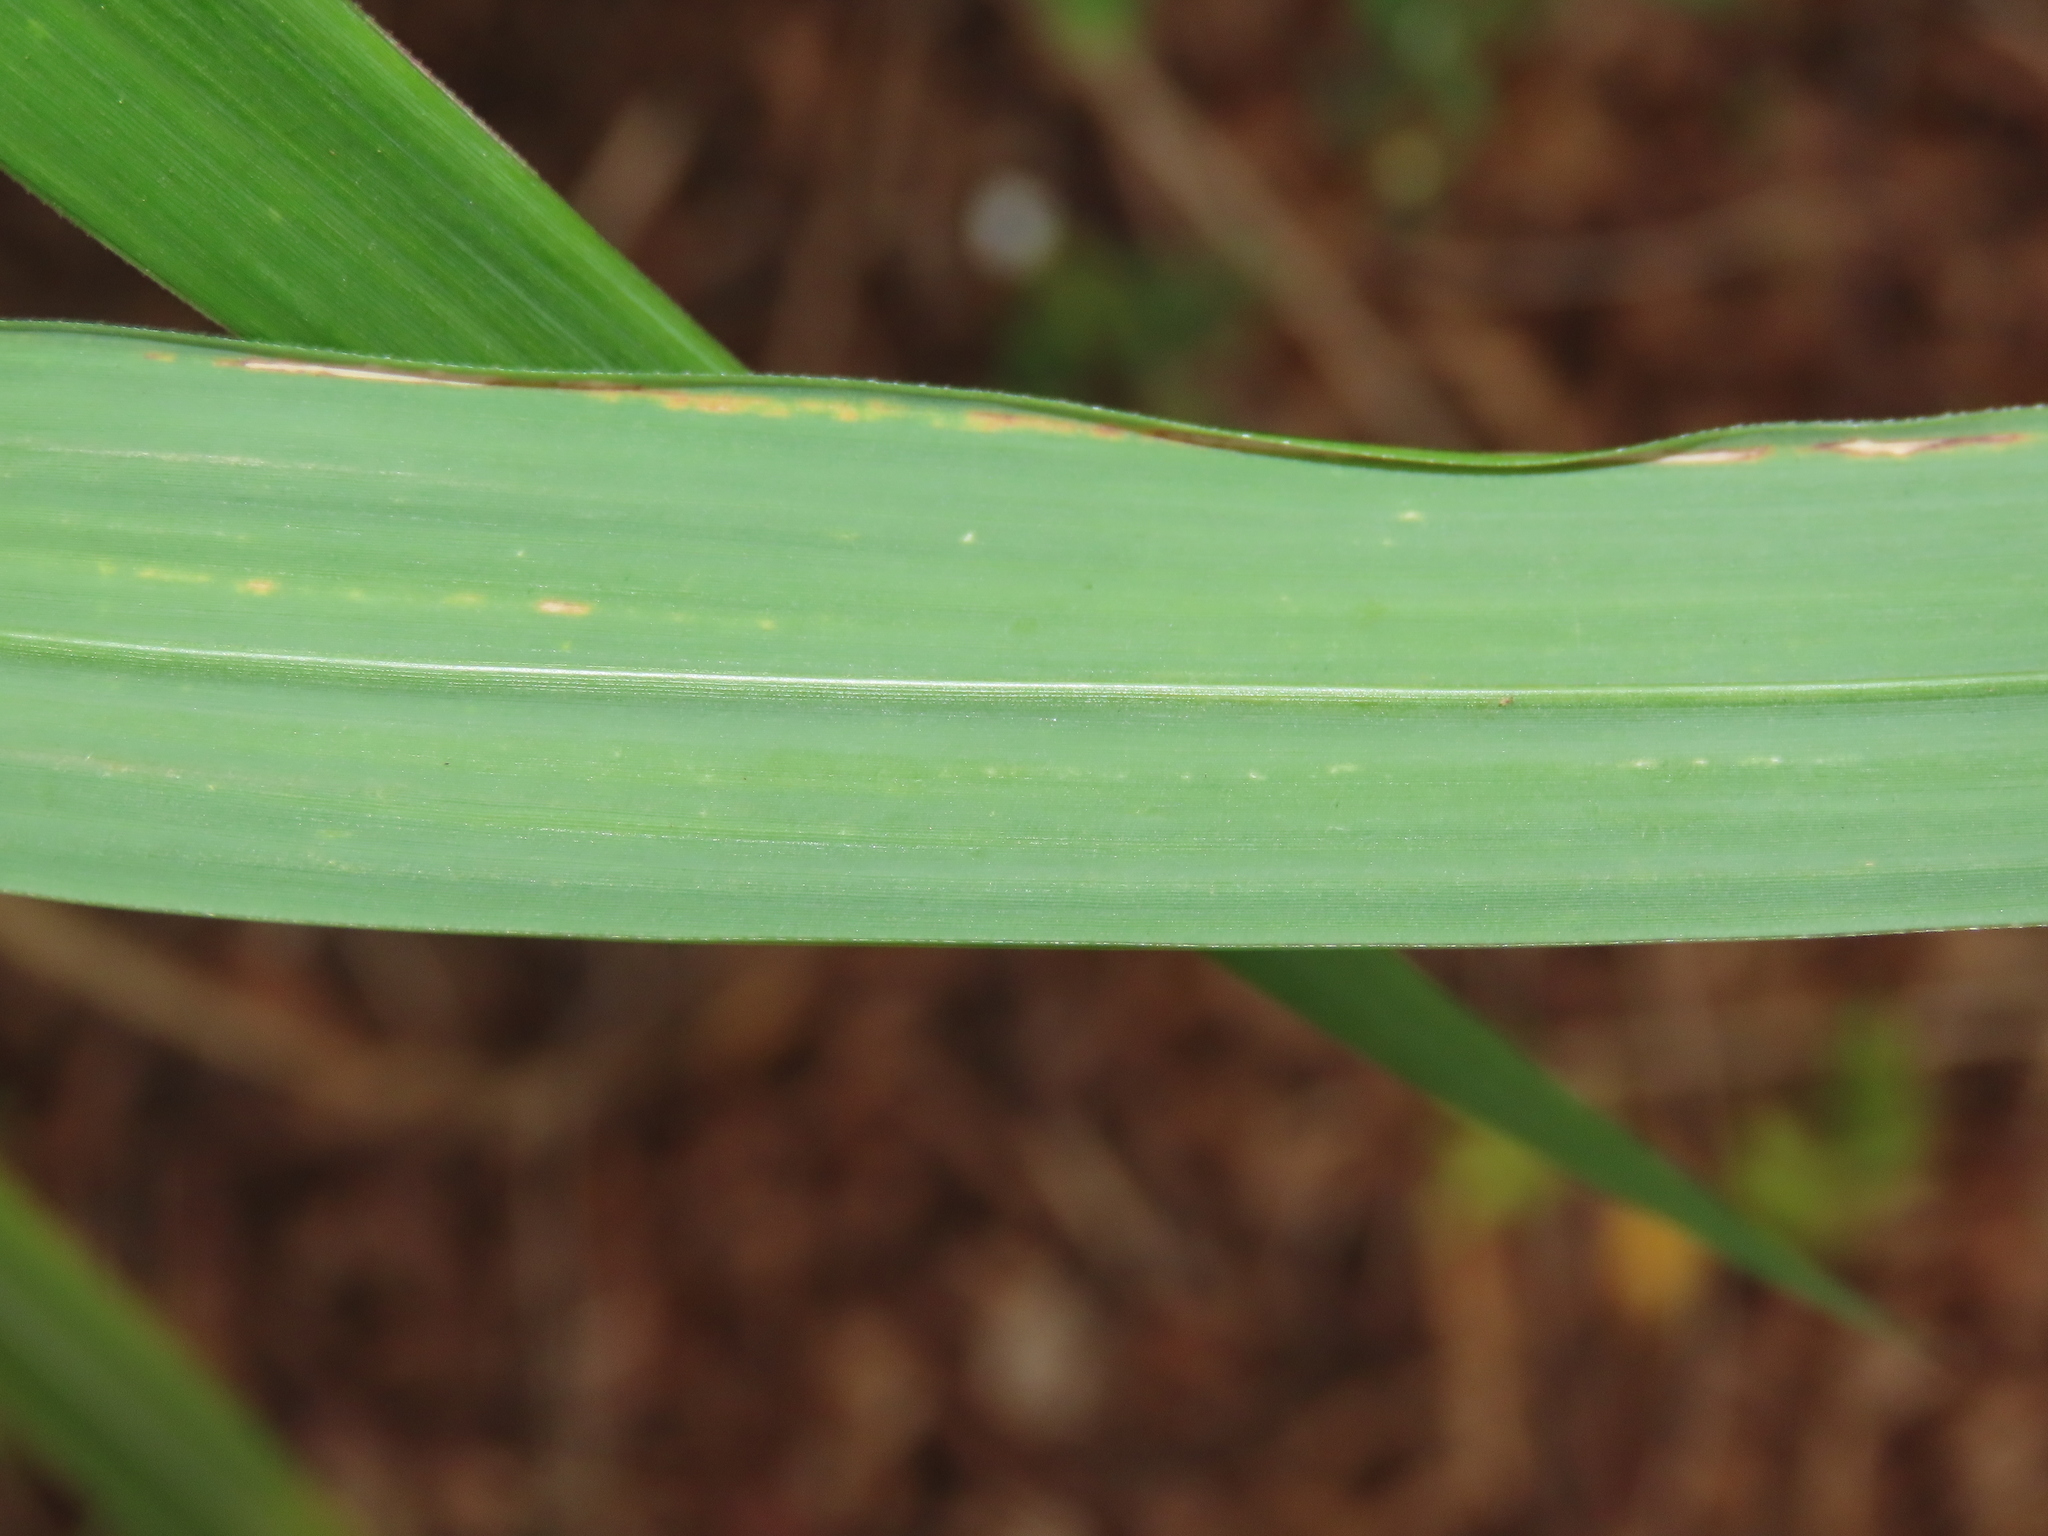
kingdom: Plantae
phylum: Tracheophyta
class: Liliopsida
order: Poales
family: Poaceae
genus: Miscanthus
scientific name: Miscanthus sinensis
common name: Chinese silvergrass
